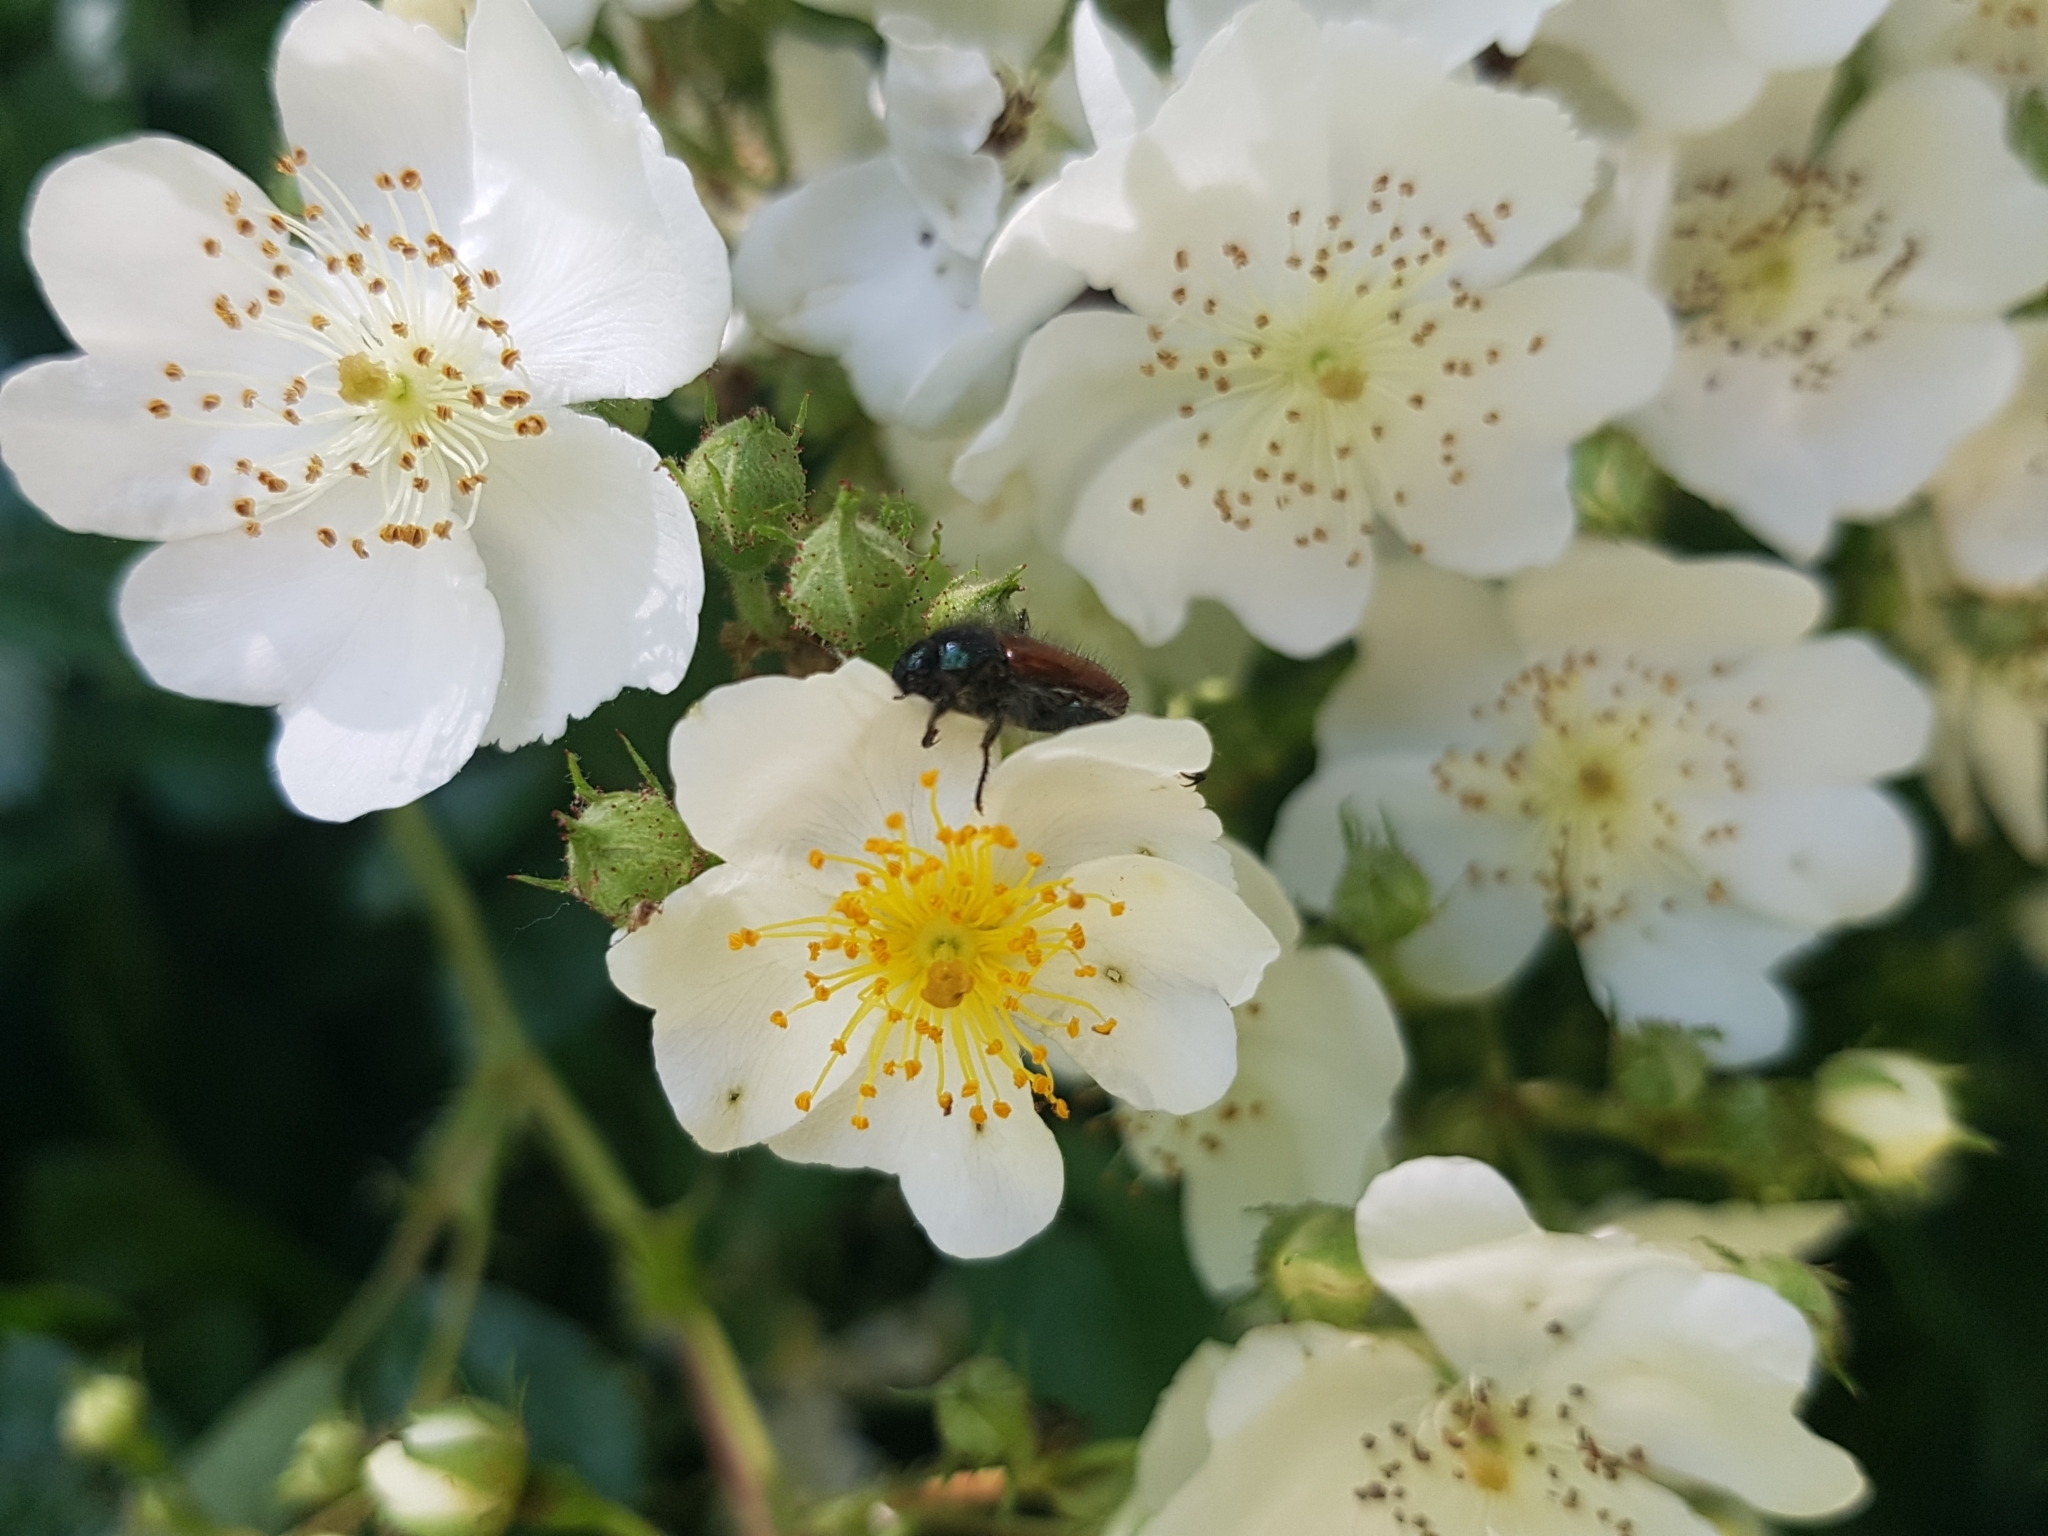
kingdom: Plantae
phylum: Tracheophyta
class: Magnoliopsida
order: Rosales
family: Rosaceae
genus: Rosa
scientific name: Rosa multiflora
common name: Multiflora rose
